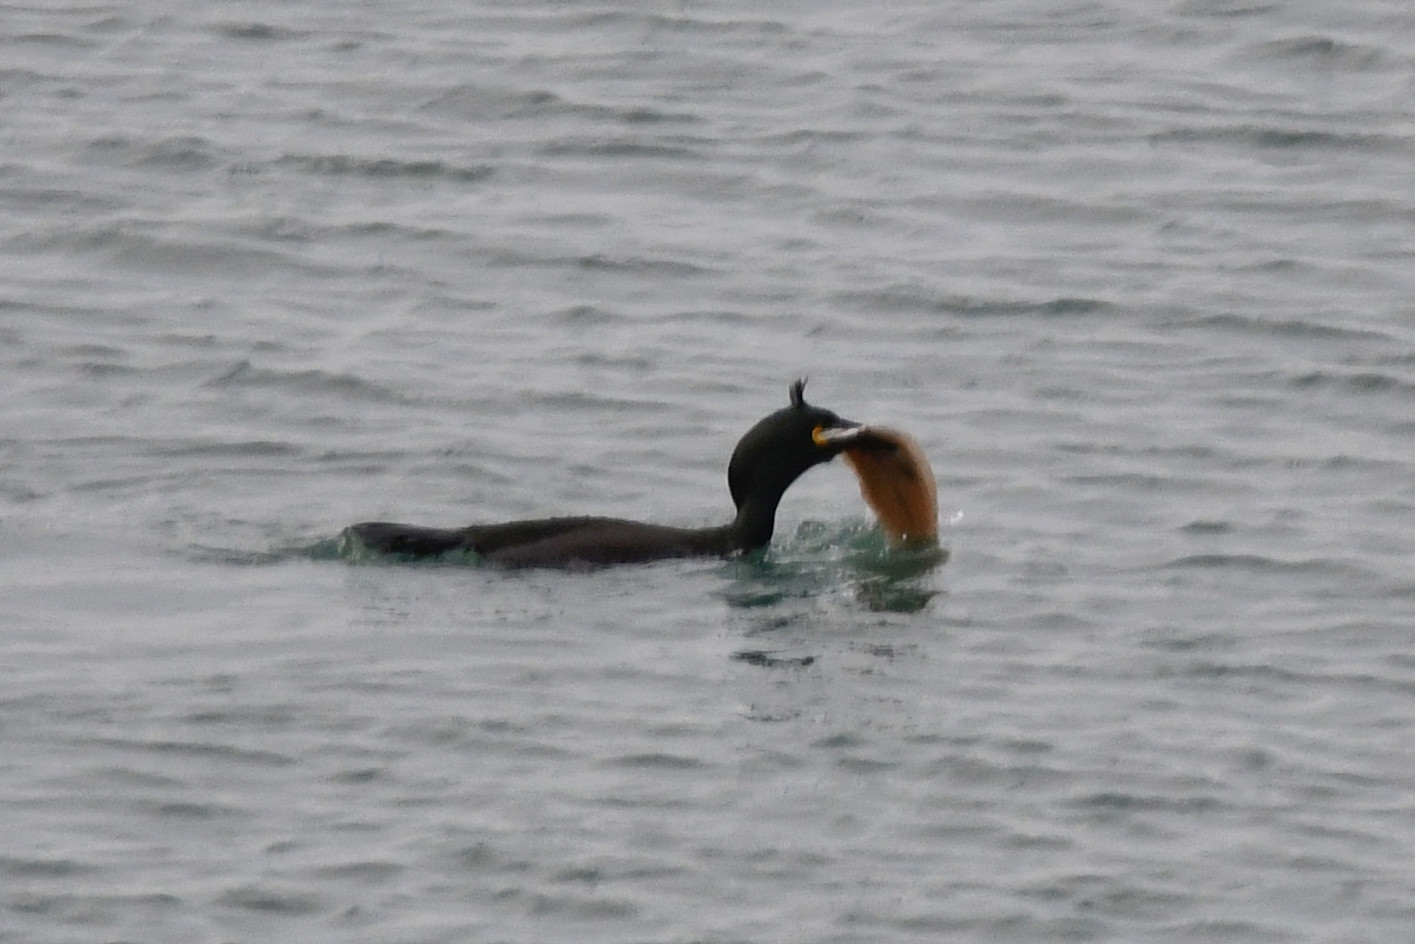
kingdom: Animalia
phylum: Chordata
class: Aves
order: Suliformes
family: Phalacrocoracidae
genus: Phalacrocorax
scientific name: Phalacrocorax aristotelis
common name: European shag
